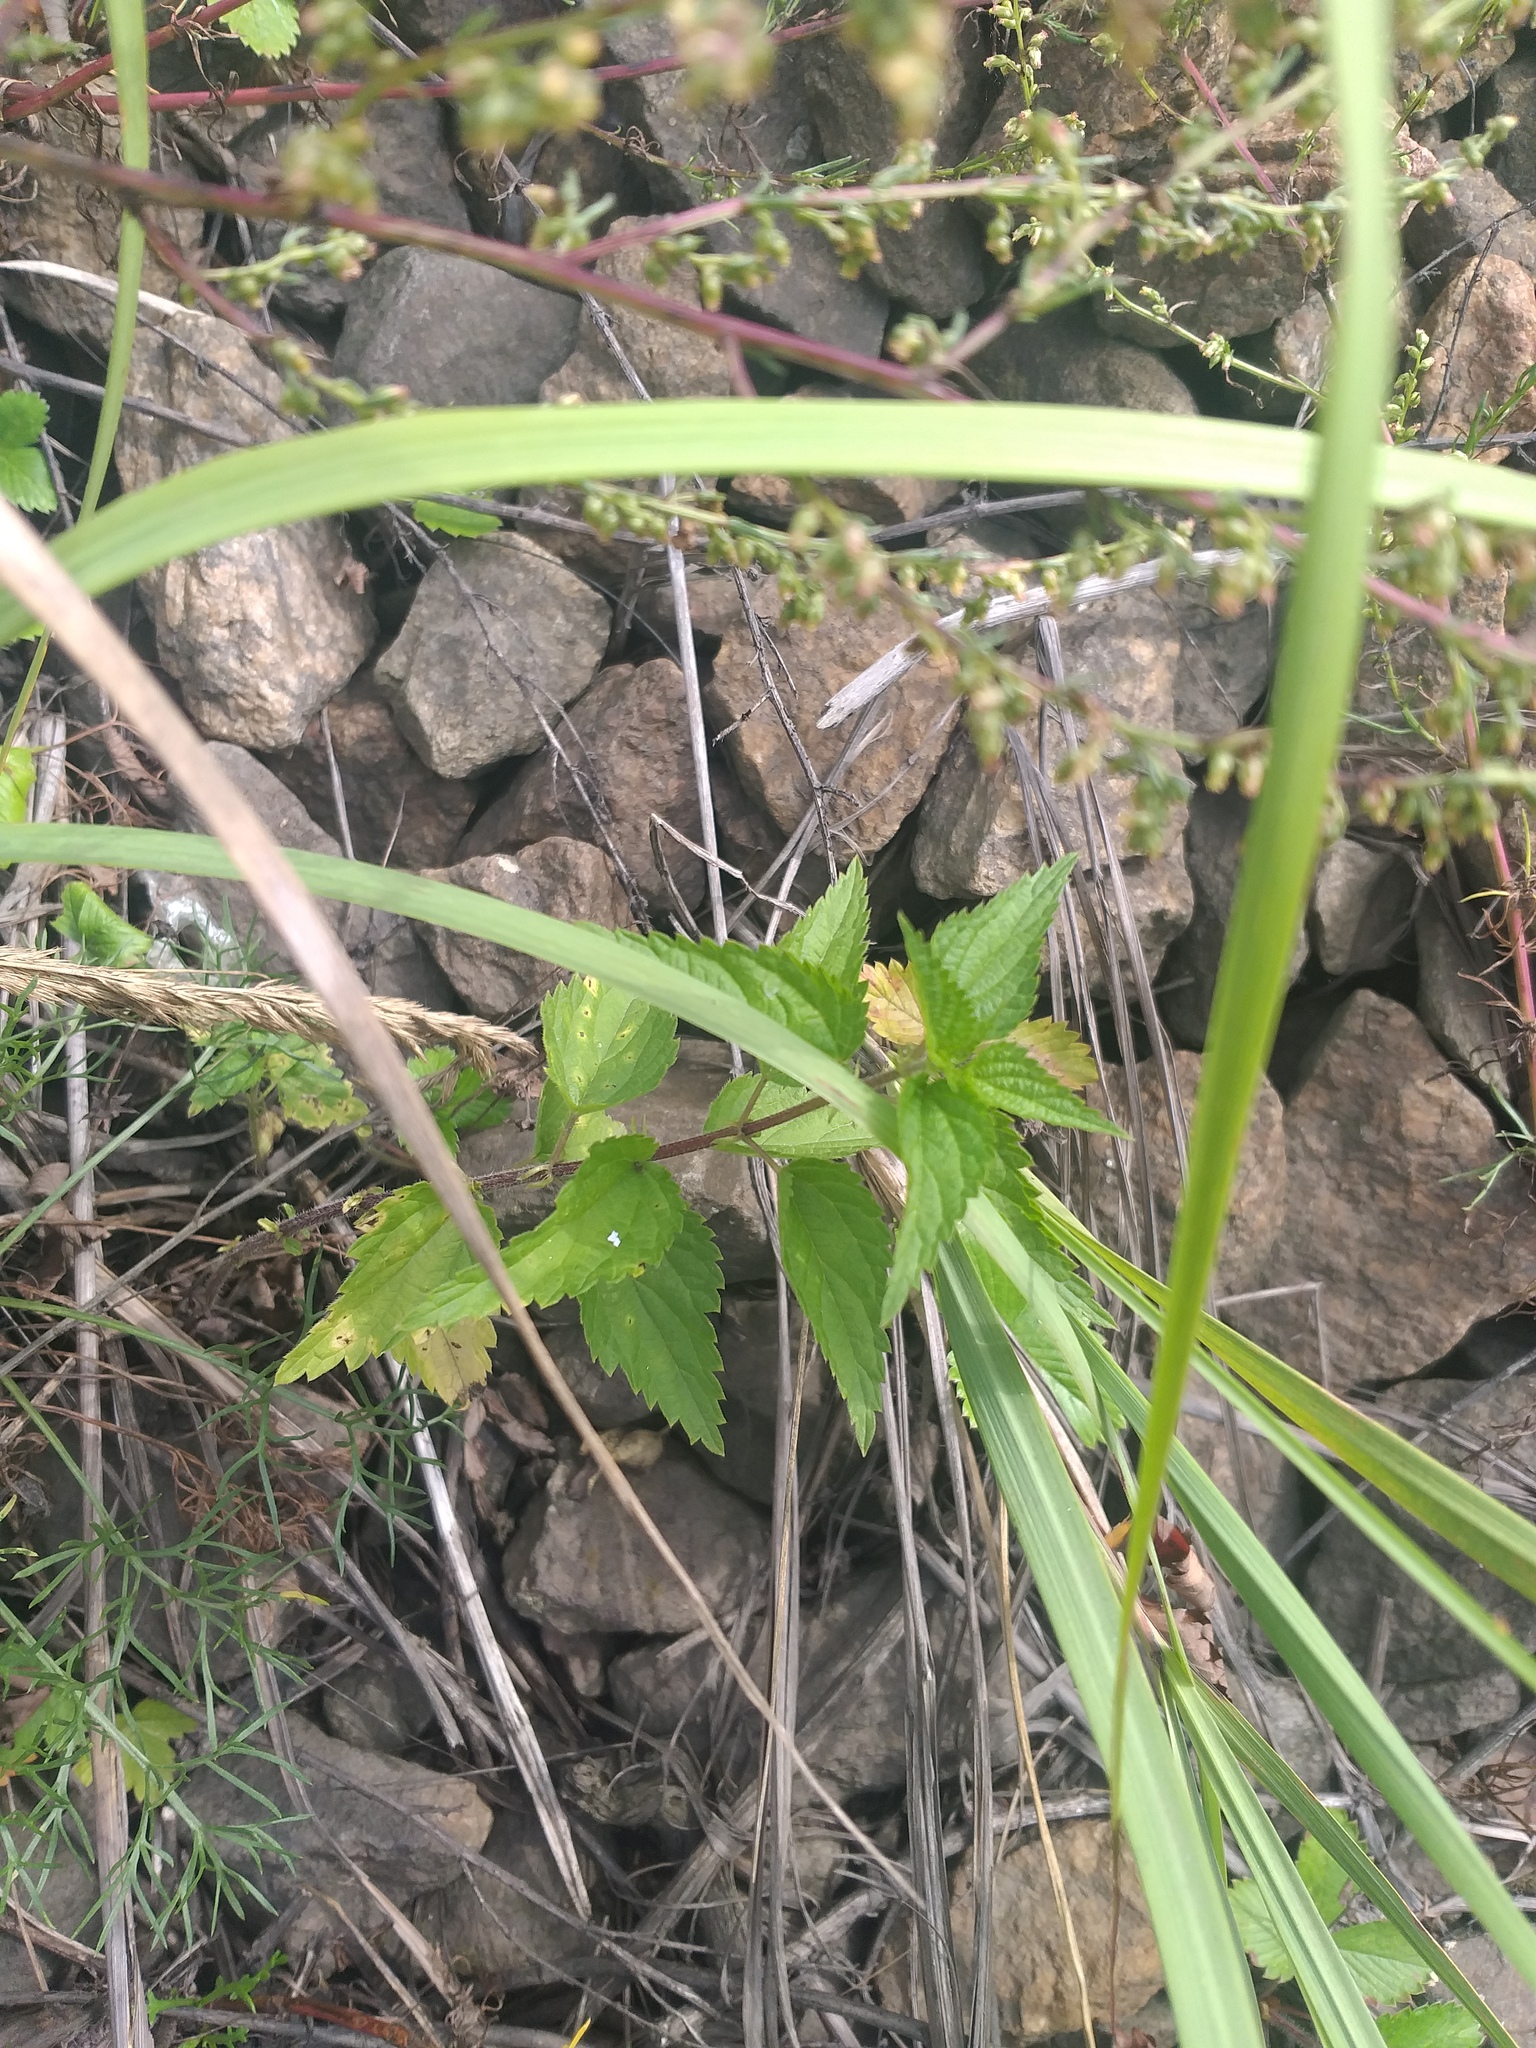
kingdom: Plantae
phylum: Tracheophyta
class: Magnoliopsida
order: Rosales
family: Urticaceae
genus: Urtica
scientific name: Urtica dioica
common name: Common nettle
